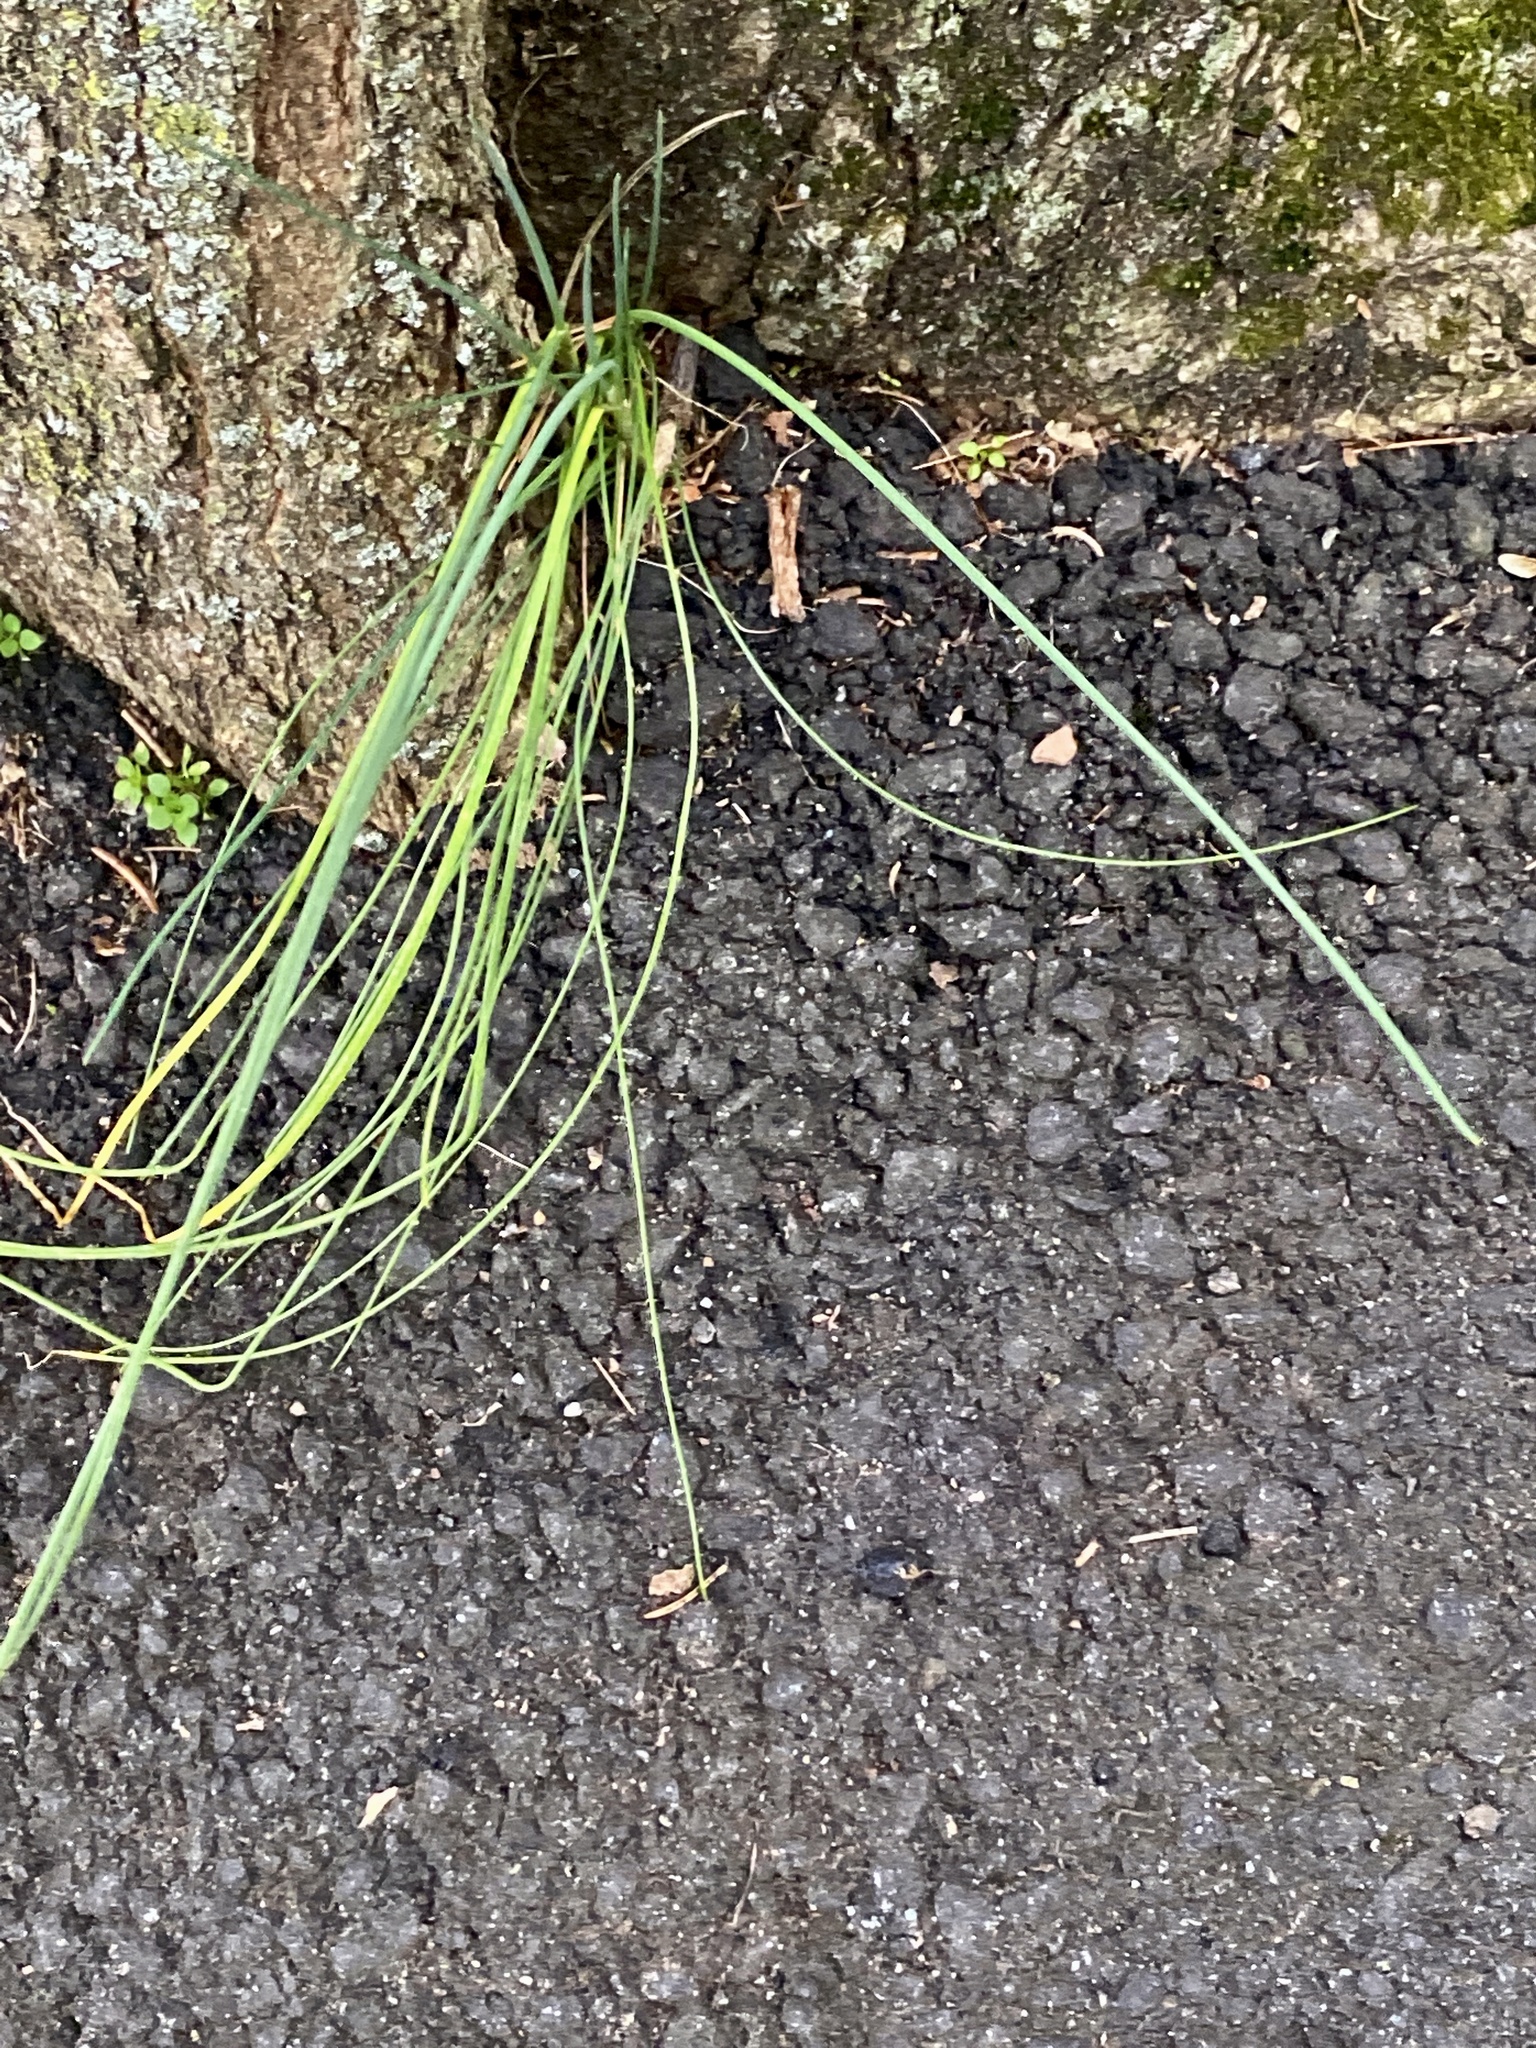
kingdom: Plantae
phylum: Tracheophyta
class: Liliopsida
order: Asparagales
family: Amaryllidaceae
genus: Allium
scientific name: Allium vineale
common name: Crow garlic
